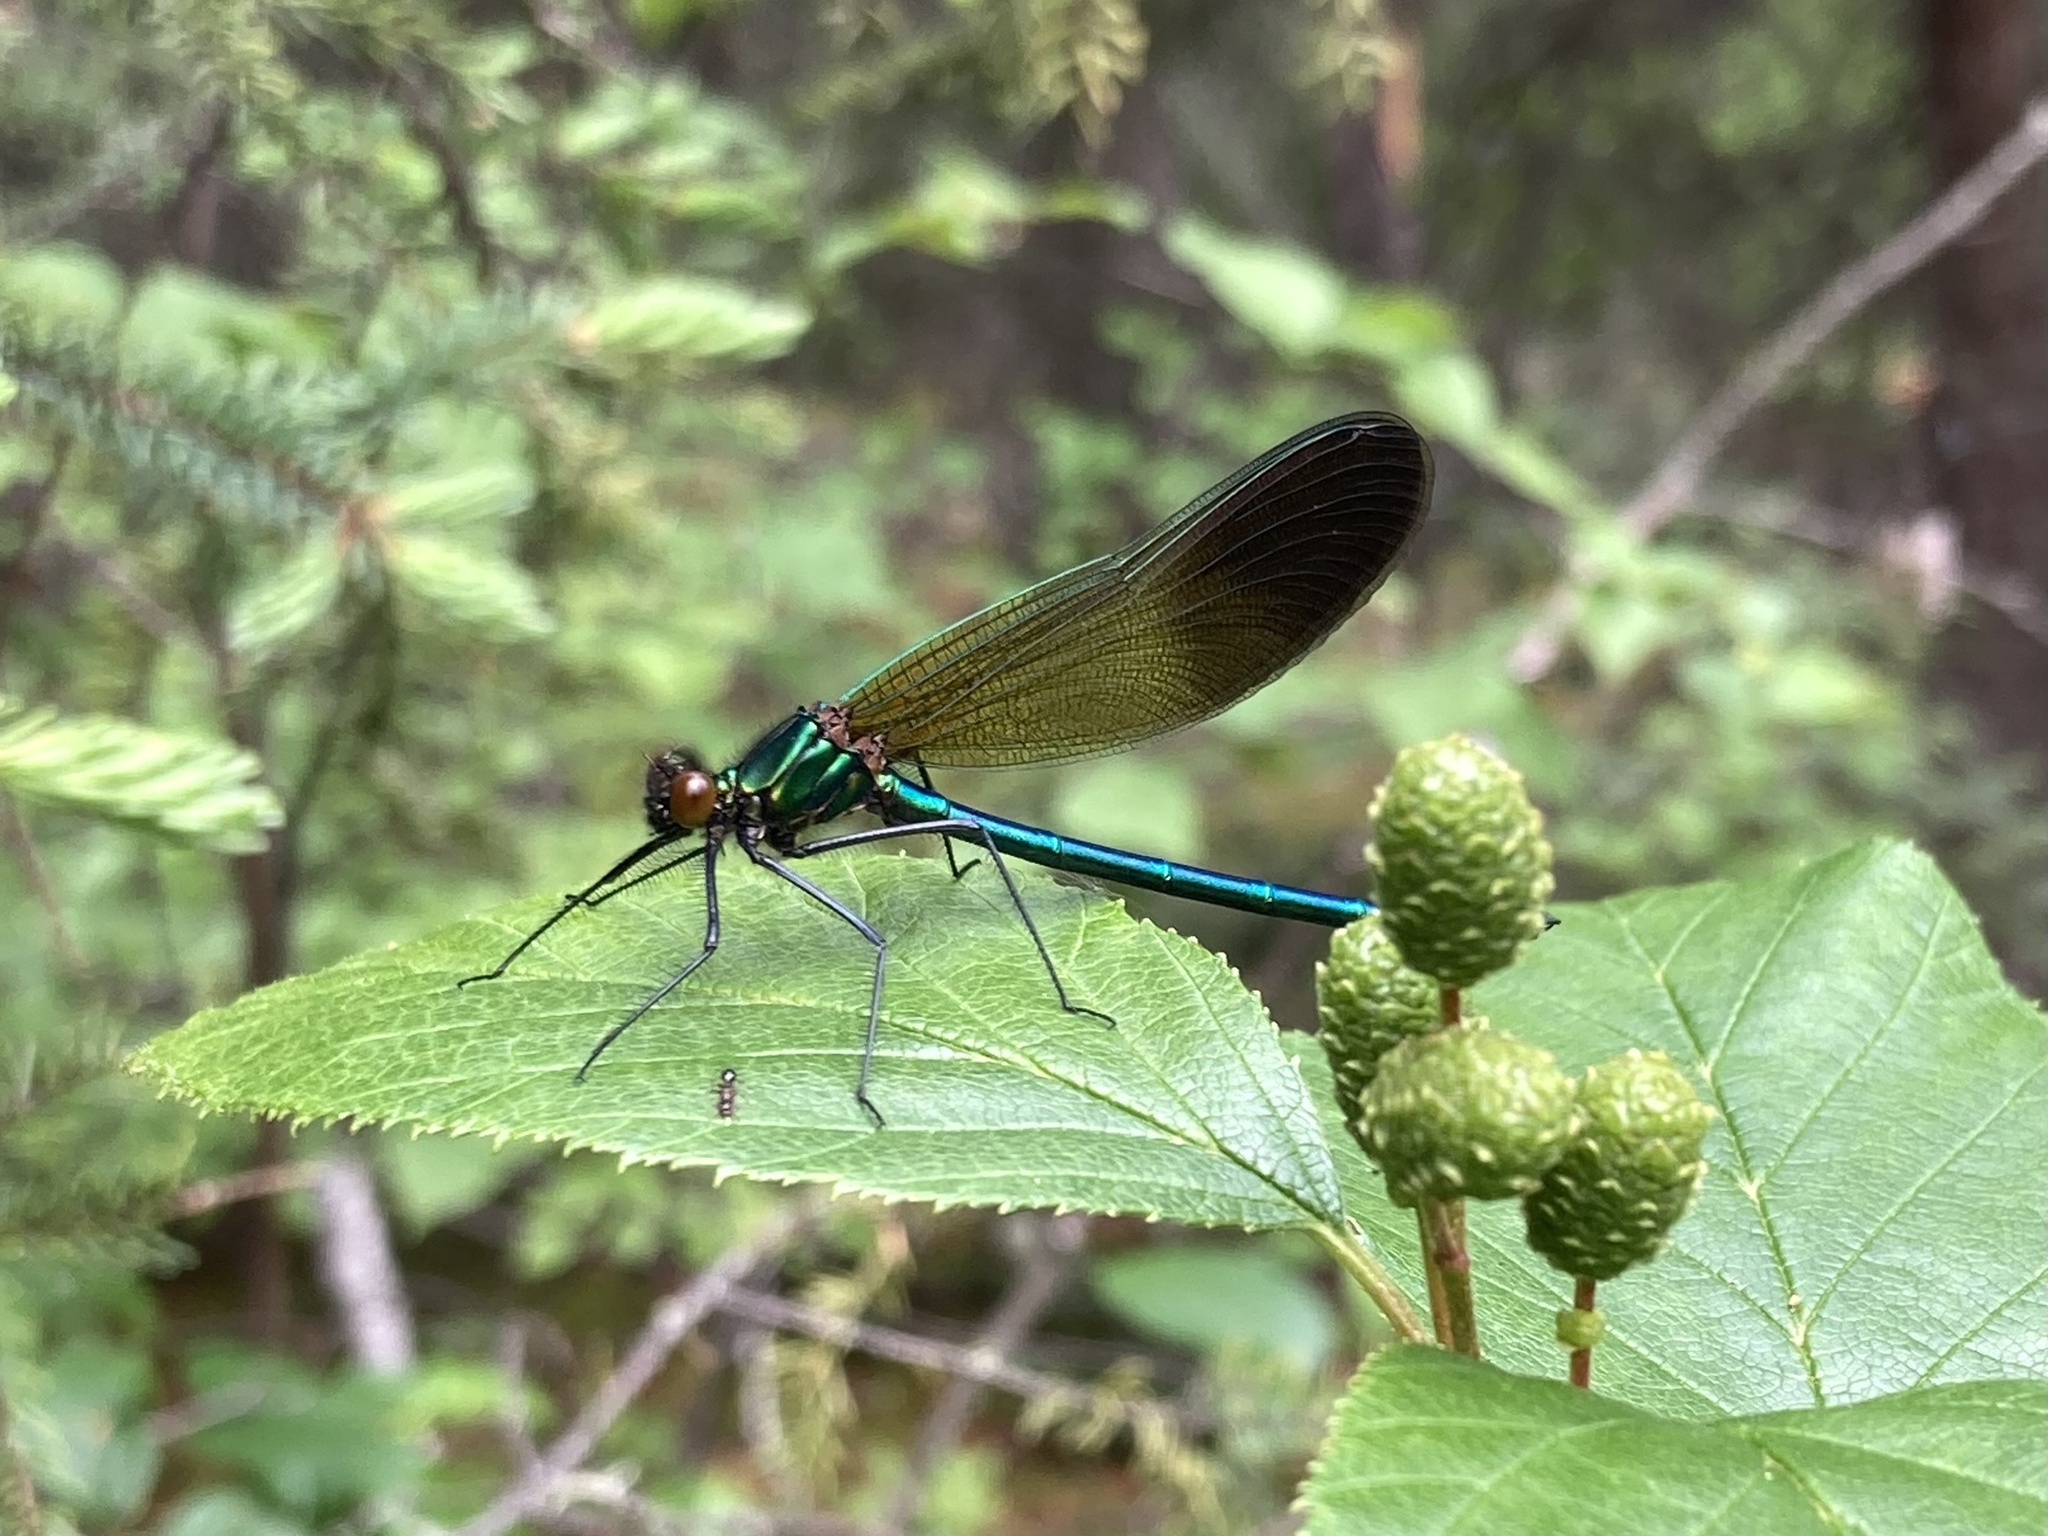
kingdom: Animalia
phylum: Arthropoda
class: Insecta
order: Odonata
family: Calopterygidae
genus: Calopteryx
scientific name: Calopteryx aequabilis
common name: River jewelwing
